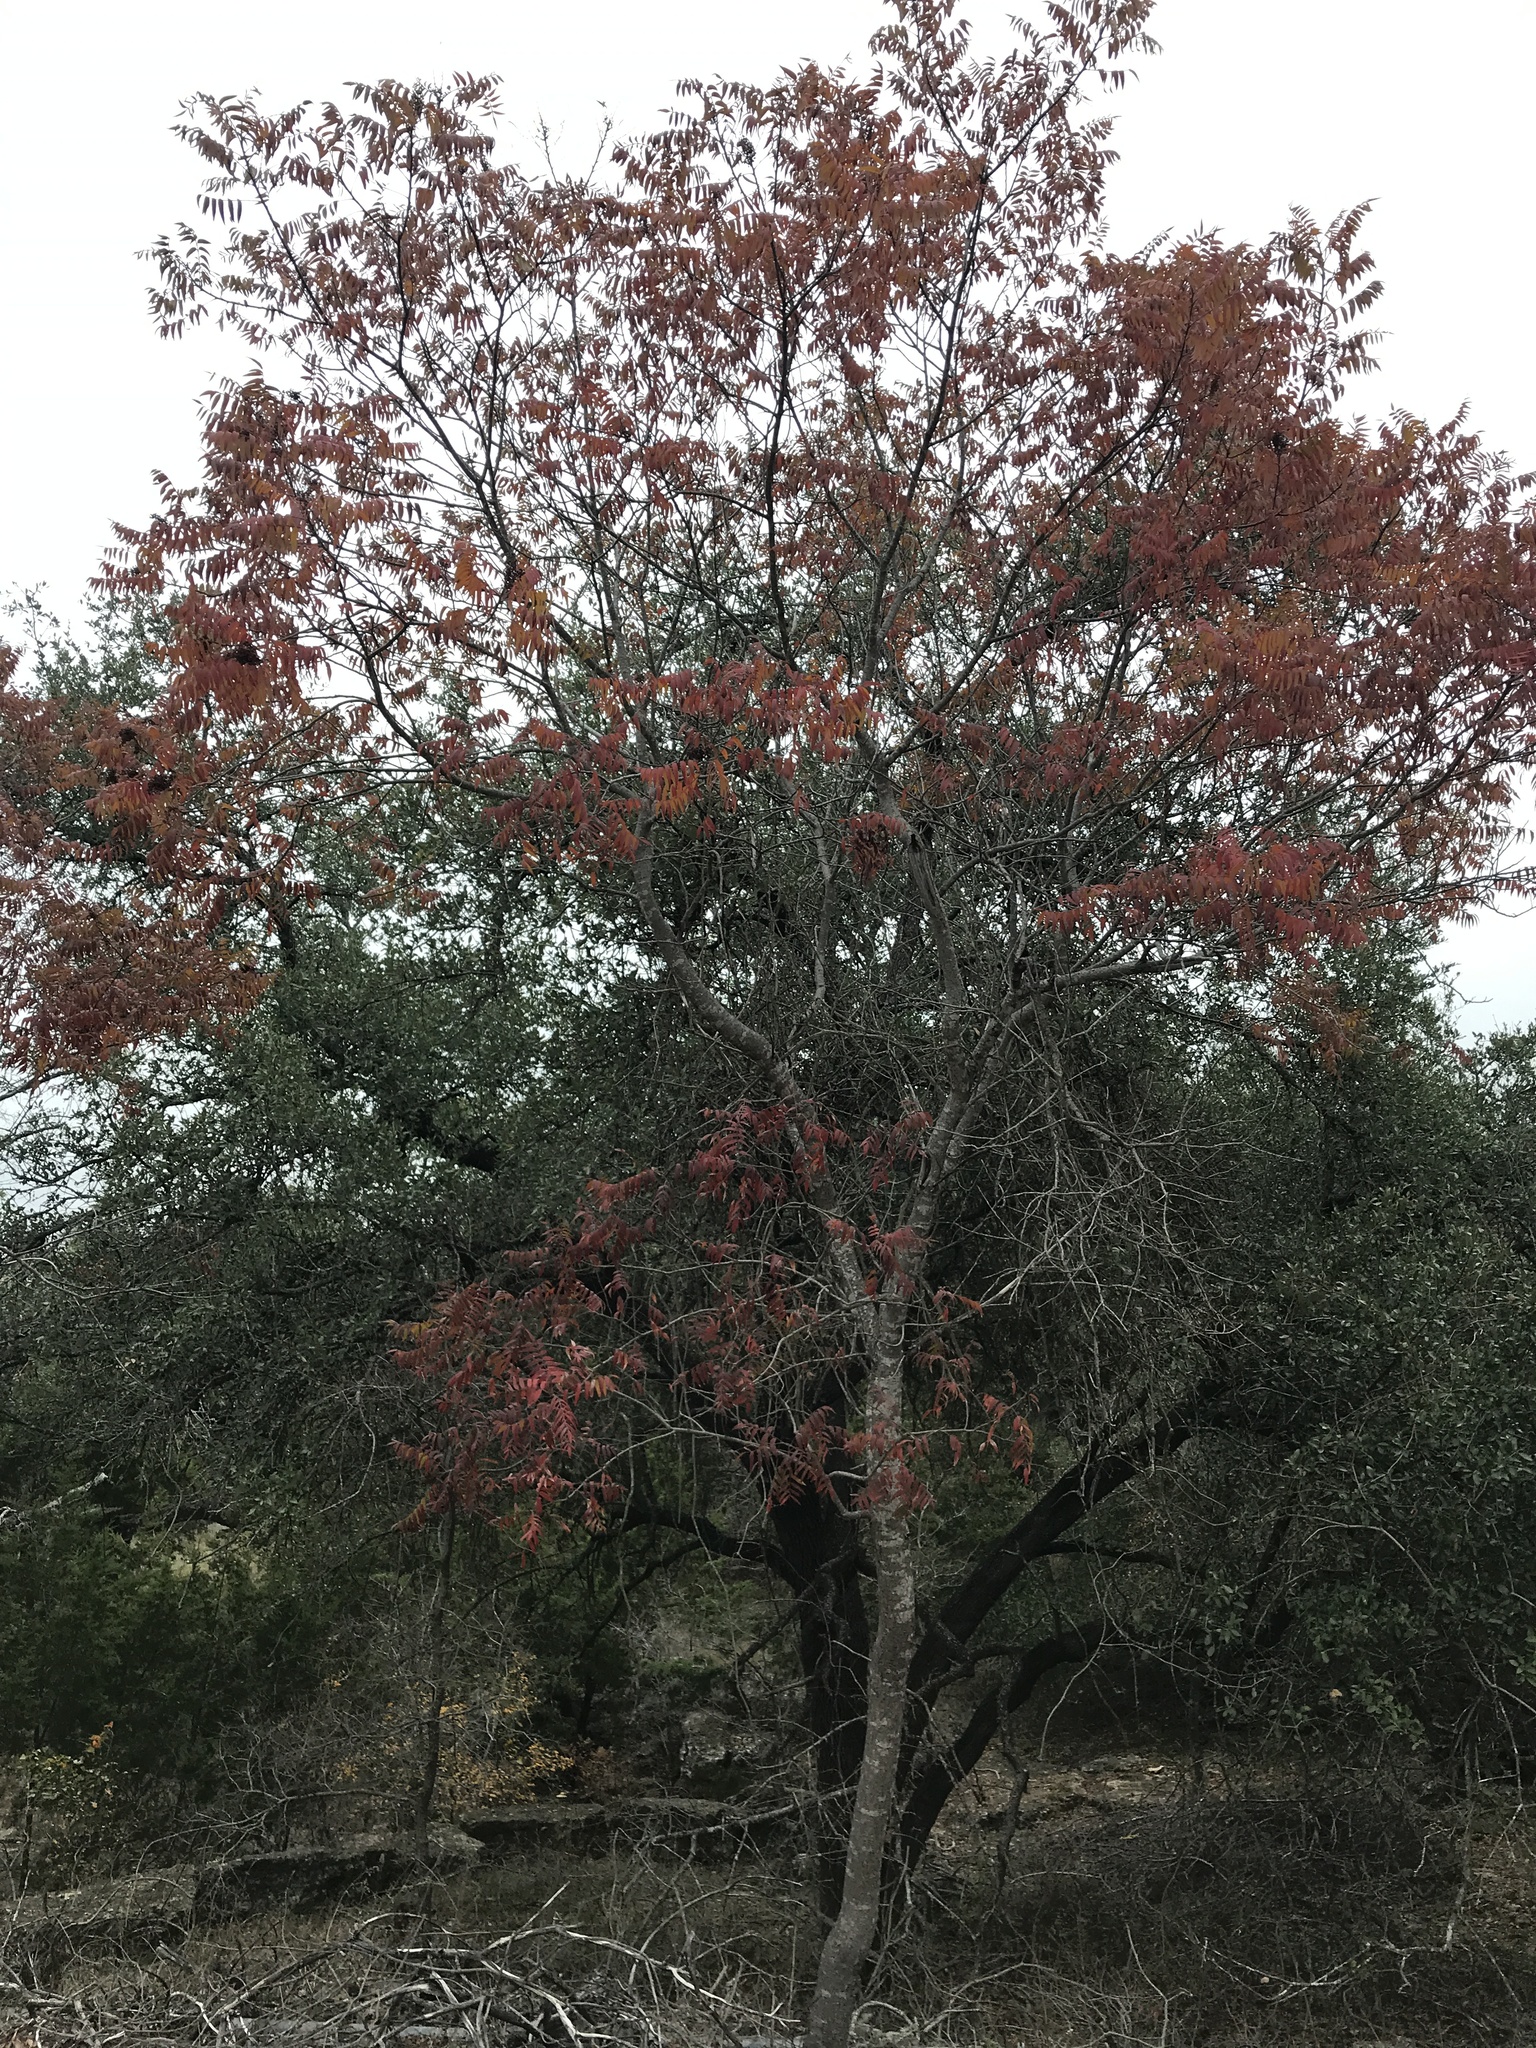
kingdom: Plantae
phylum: Tracheophyta
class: Magnoliopsida
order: Sapindales
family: Anacardiaceae
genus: Rhus
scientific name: Rhus lanceolata
